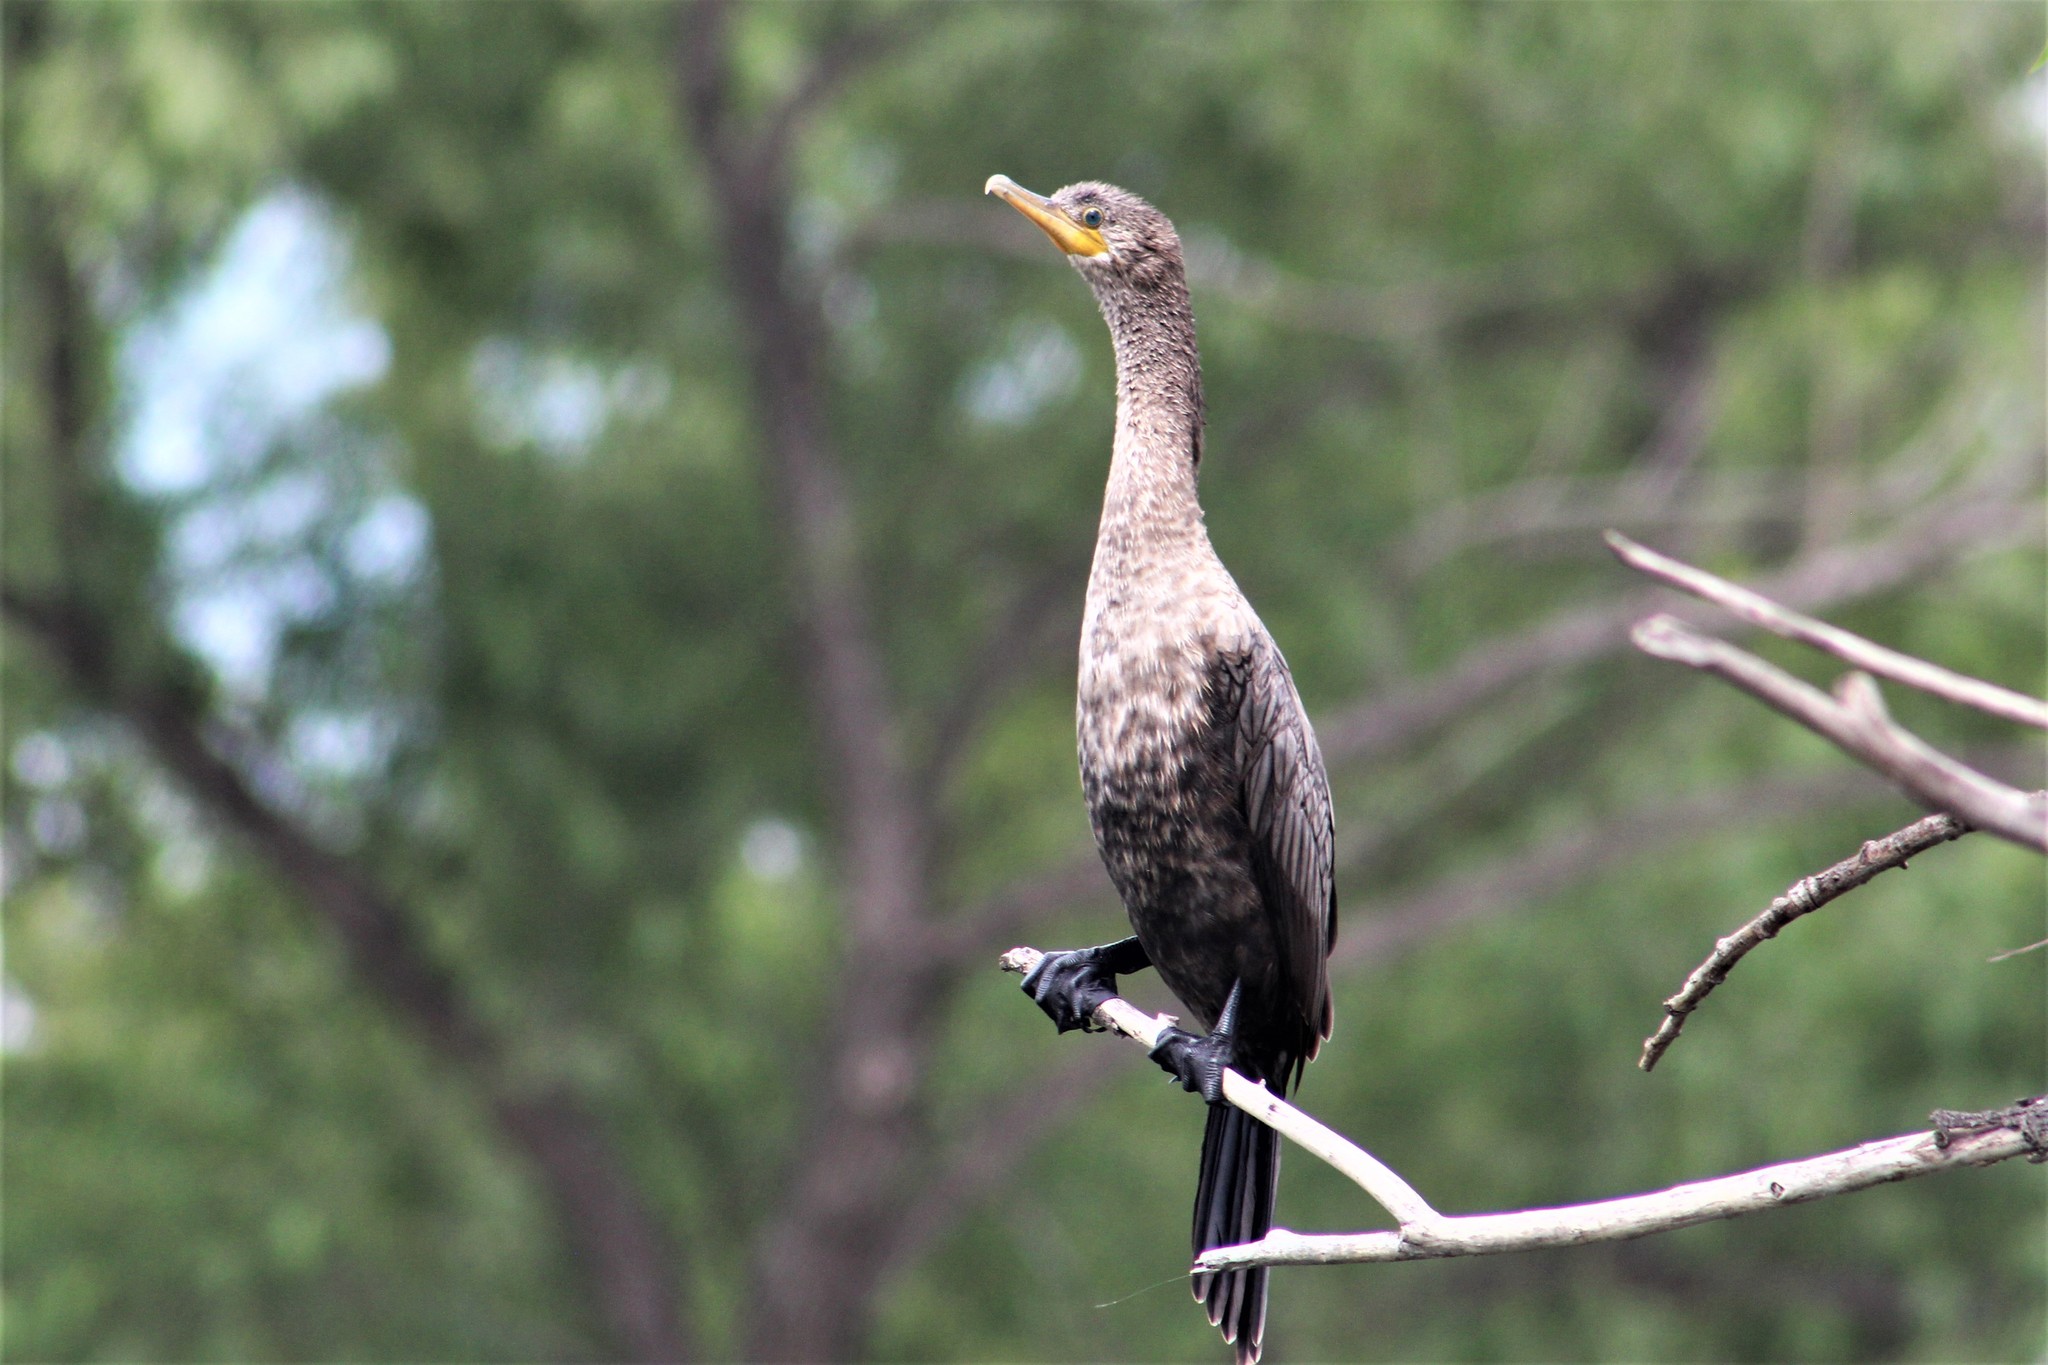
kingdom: Animalia
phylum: Chordata
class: Aves
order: Suliformes
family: Phalacrocoracidae
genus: Phalacrocorax
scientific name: Phalacrocorax brasilianus
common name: Neotropic cormorant
